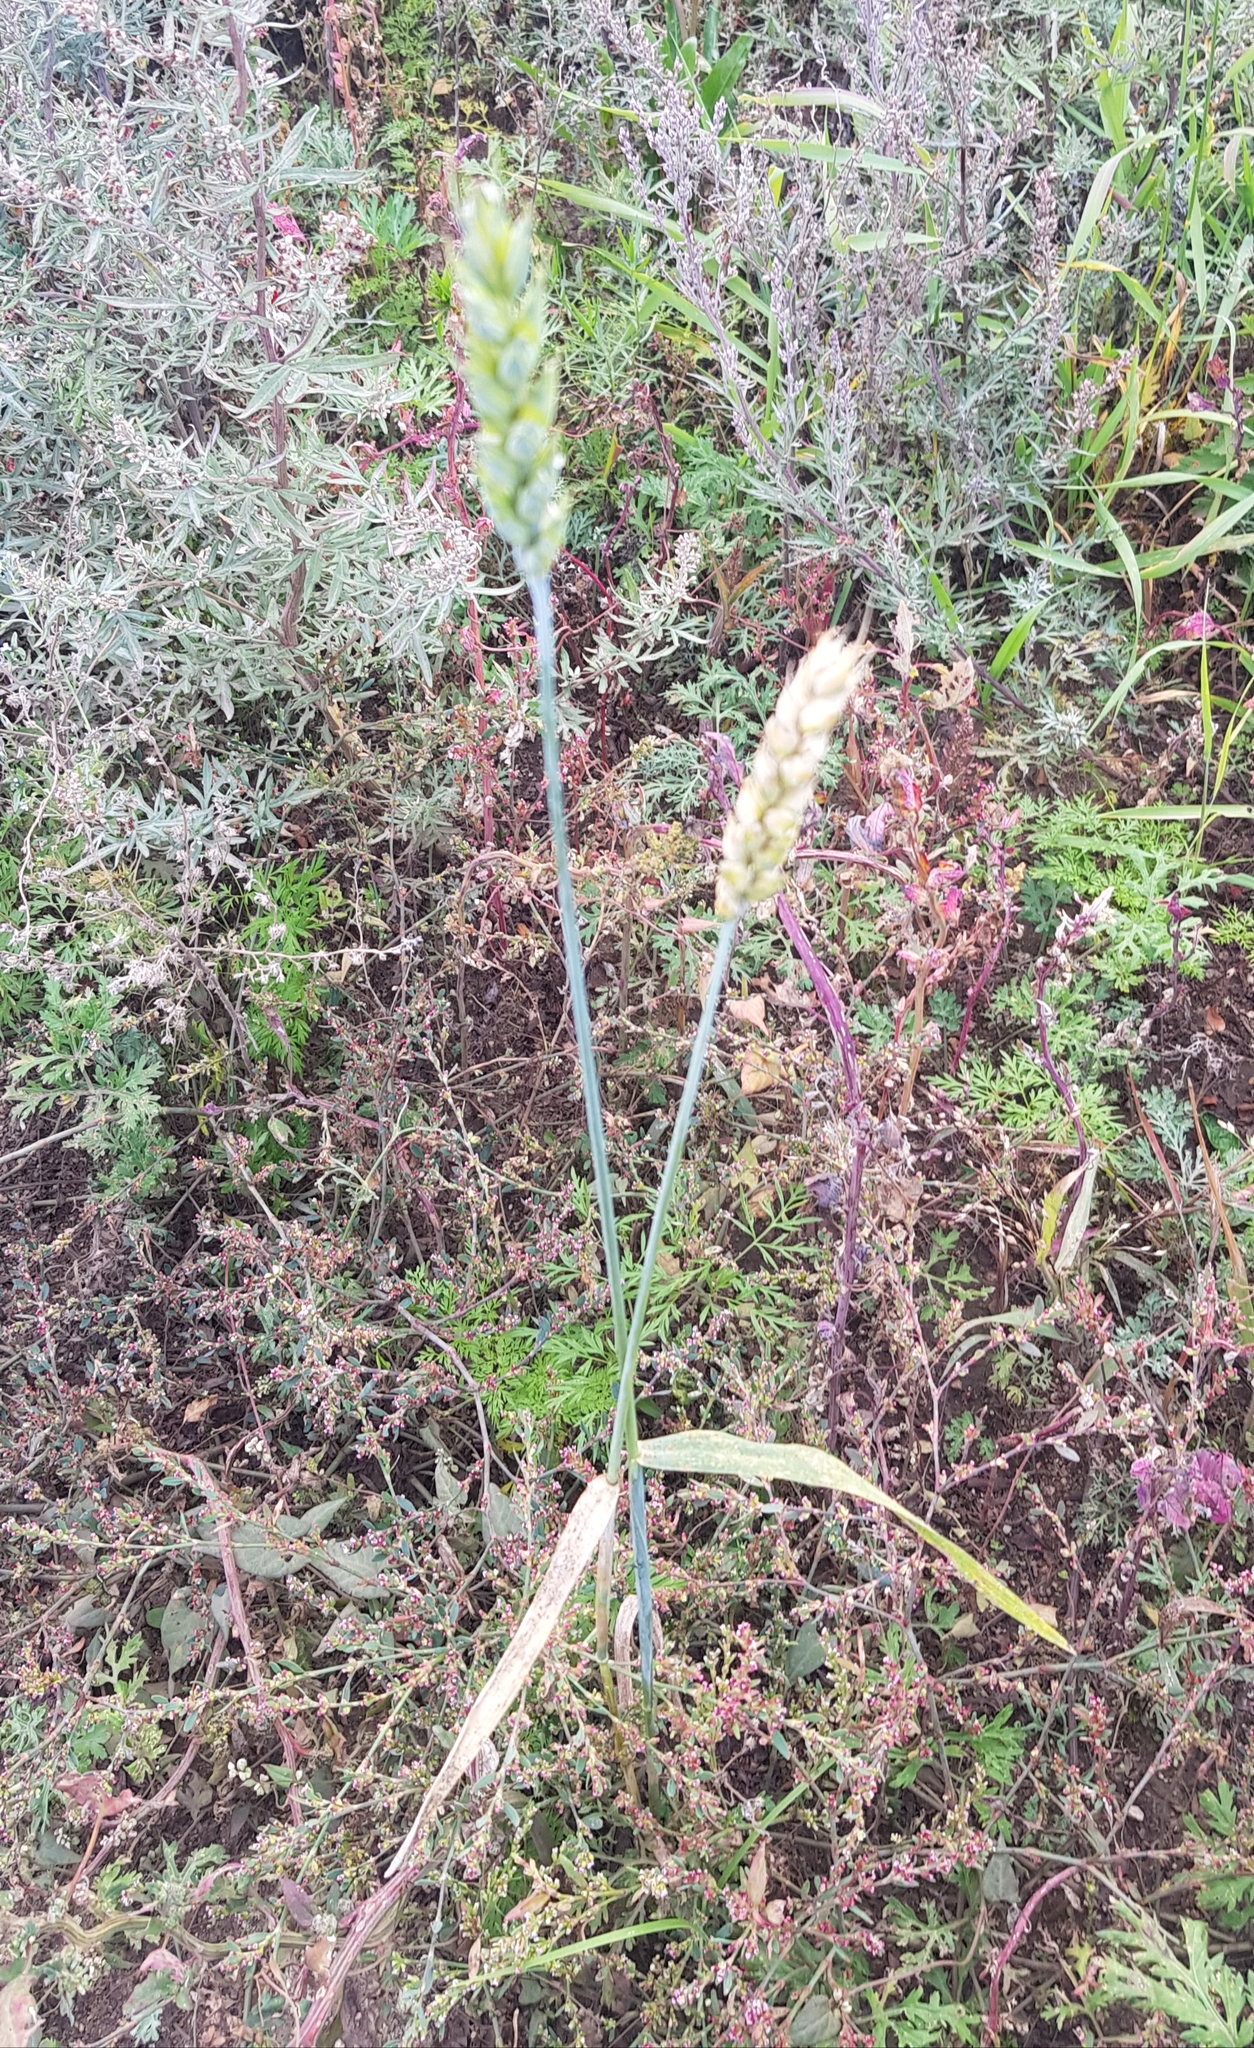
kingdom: Plantae
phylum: Tracheophyta
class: Liliopsida
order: Poales
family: Poaceae
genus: Triticum
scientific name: Triticum aestivum
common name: Common wheat
